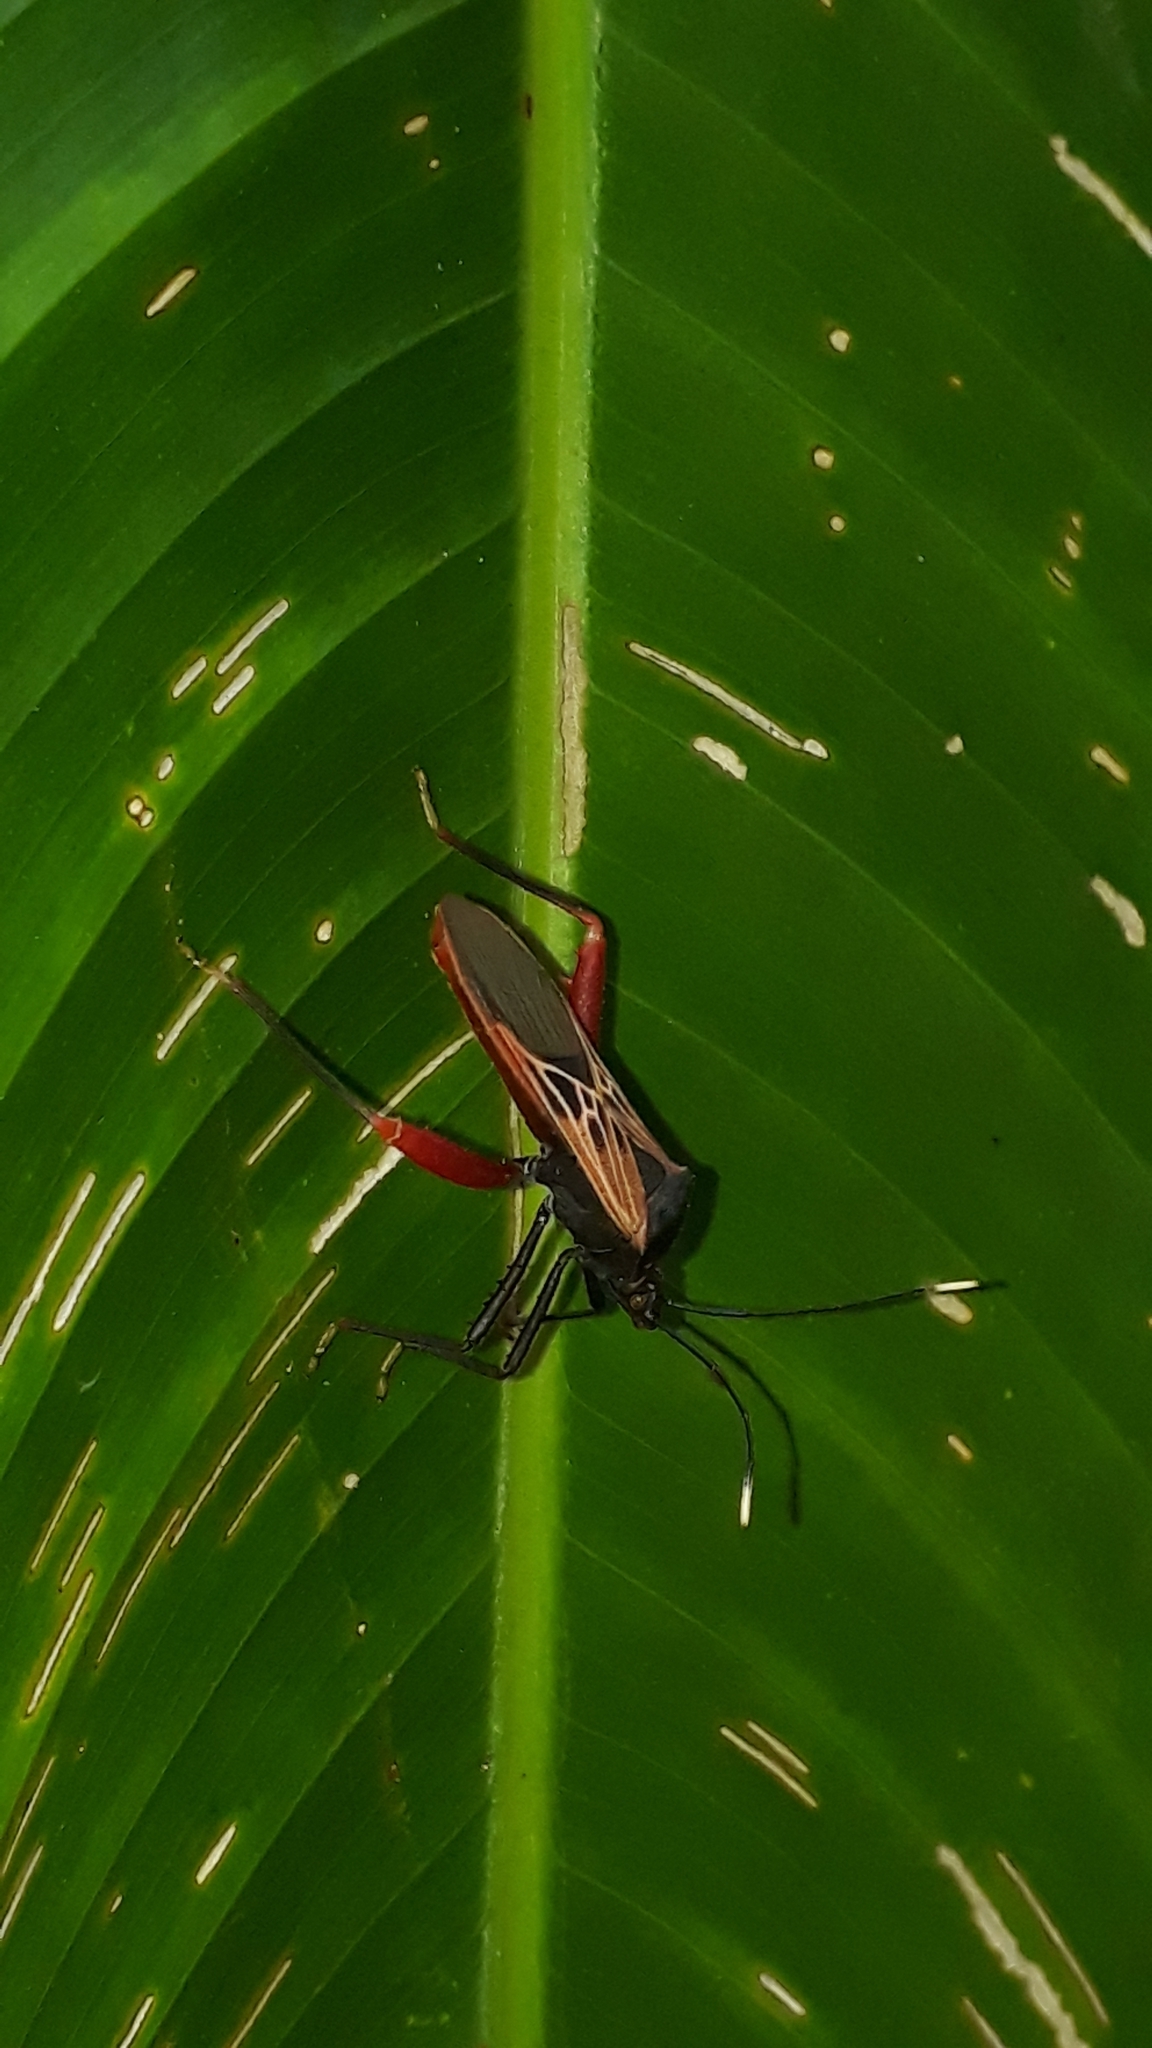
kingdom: Animalia
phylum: Arthropoda
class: Insecta
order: Hemiptera
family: Coreidae
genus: Leptoscelis
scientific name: Leptoscelis excellens
